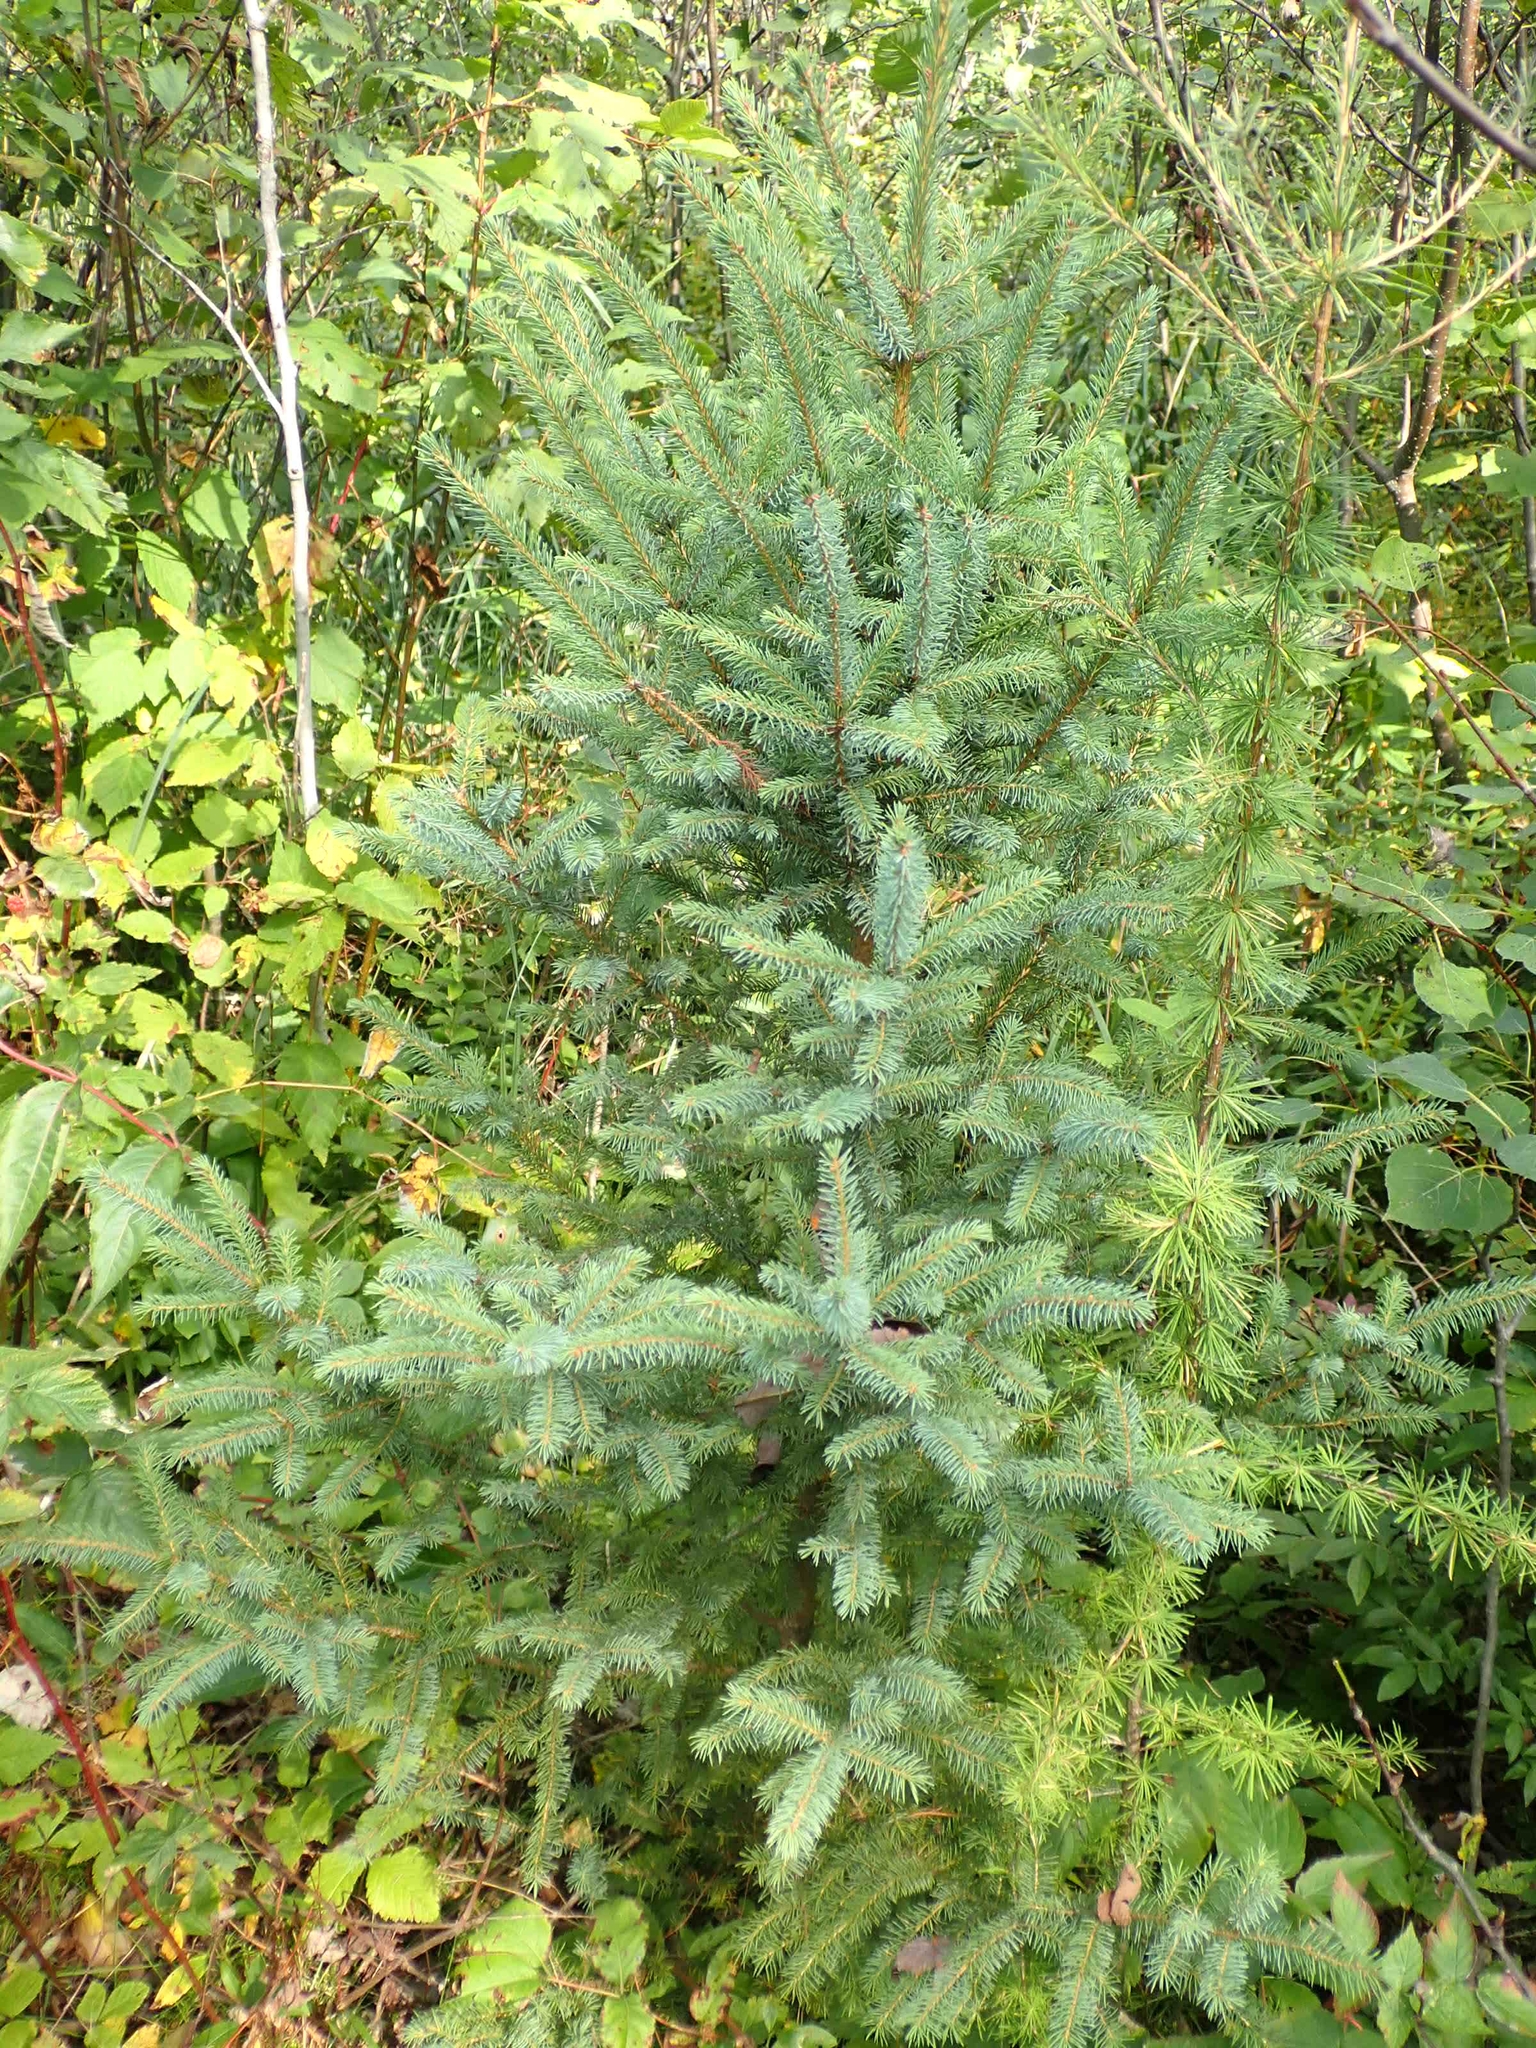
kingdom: Plantae
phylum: Tracheophyta
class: Pinopsida
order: Pinales
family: Pinaceae
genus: Picea
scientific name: Picea glauca
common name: White spruce
